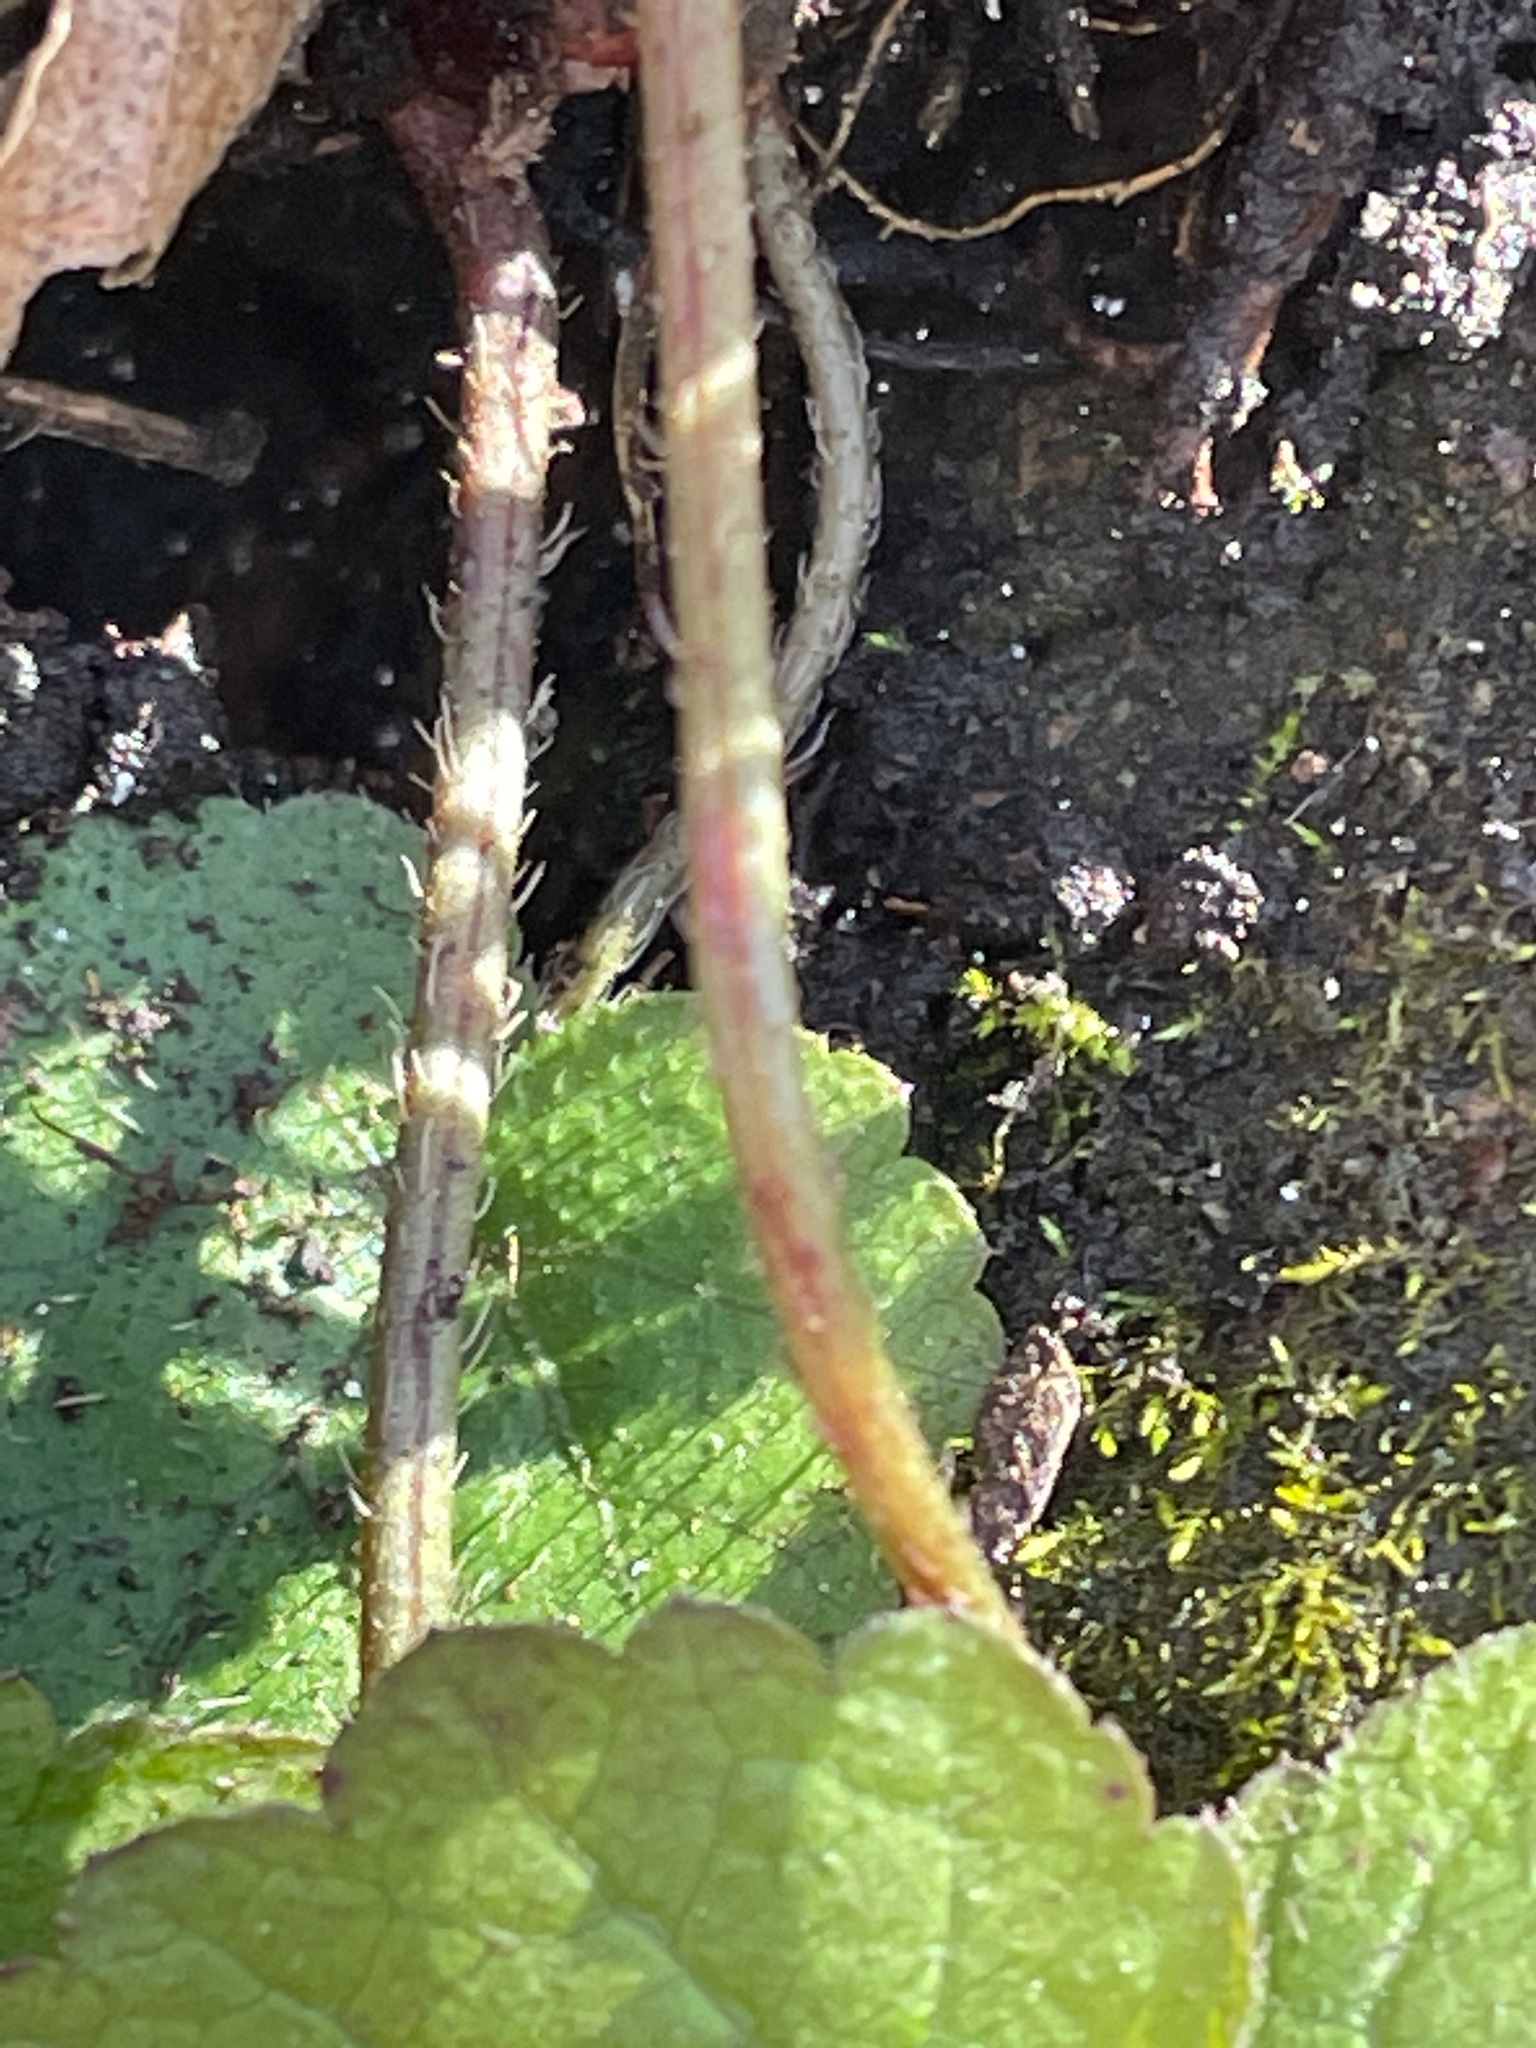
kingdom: Plantae
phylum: Tracheophyta
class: Magnoliopsida
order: Saxifragales
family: Saxifragaceae
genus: Mitella
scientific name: Mitella diphylla
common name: Coolwort
